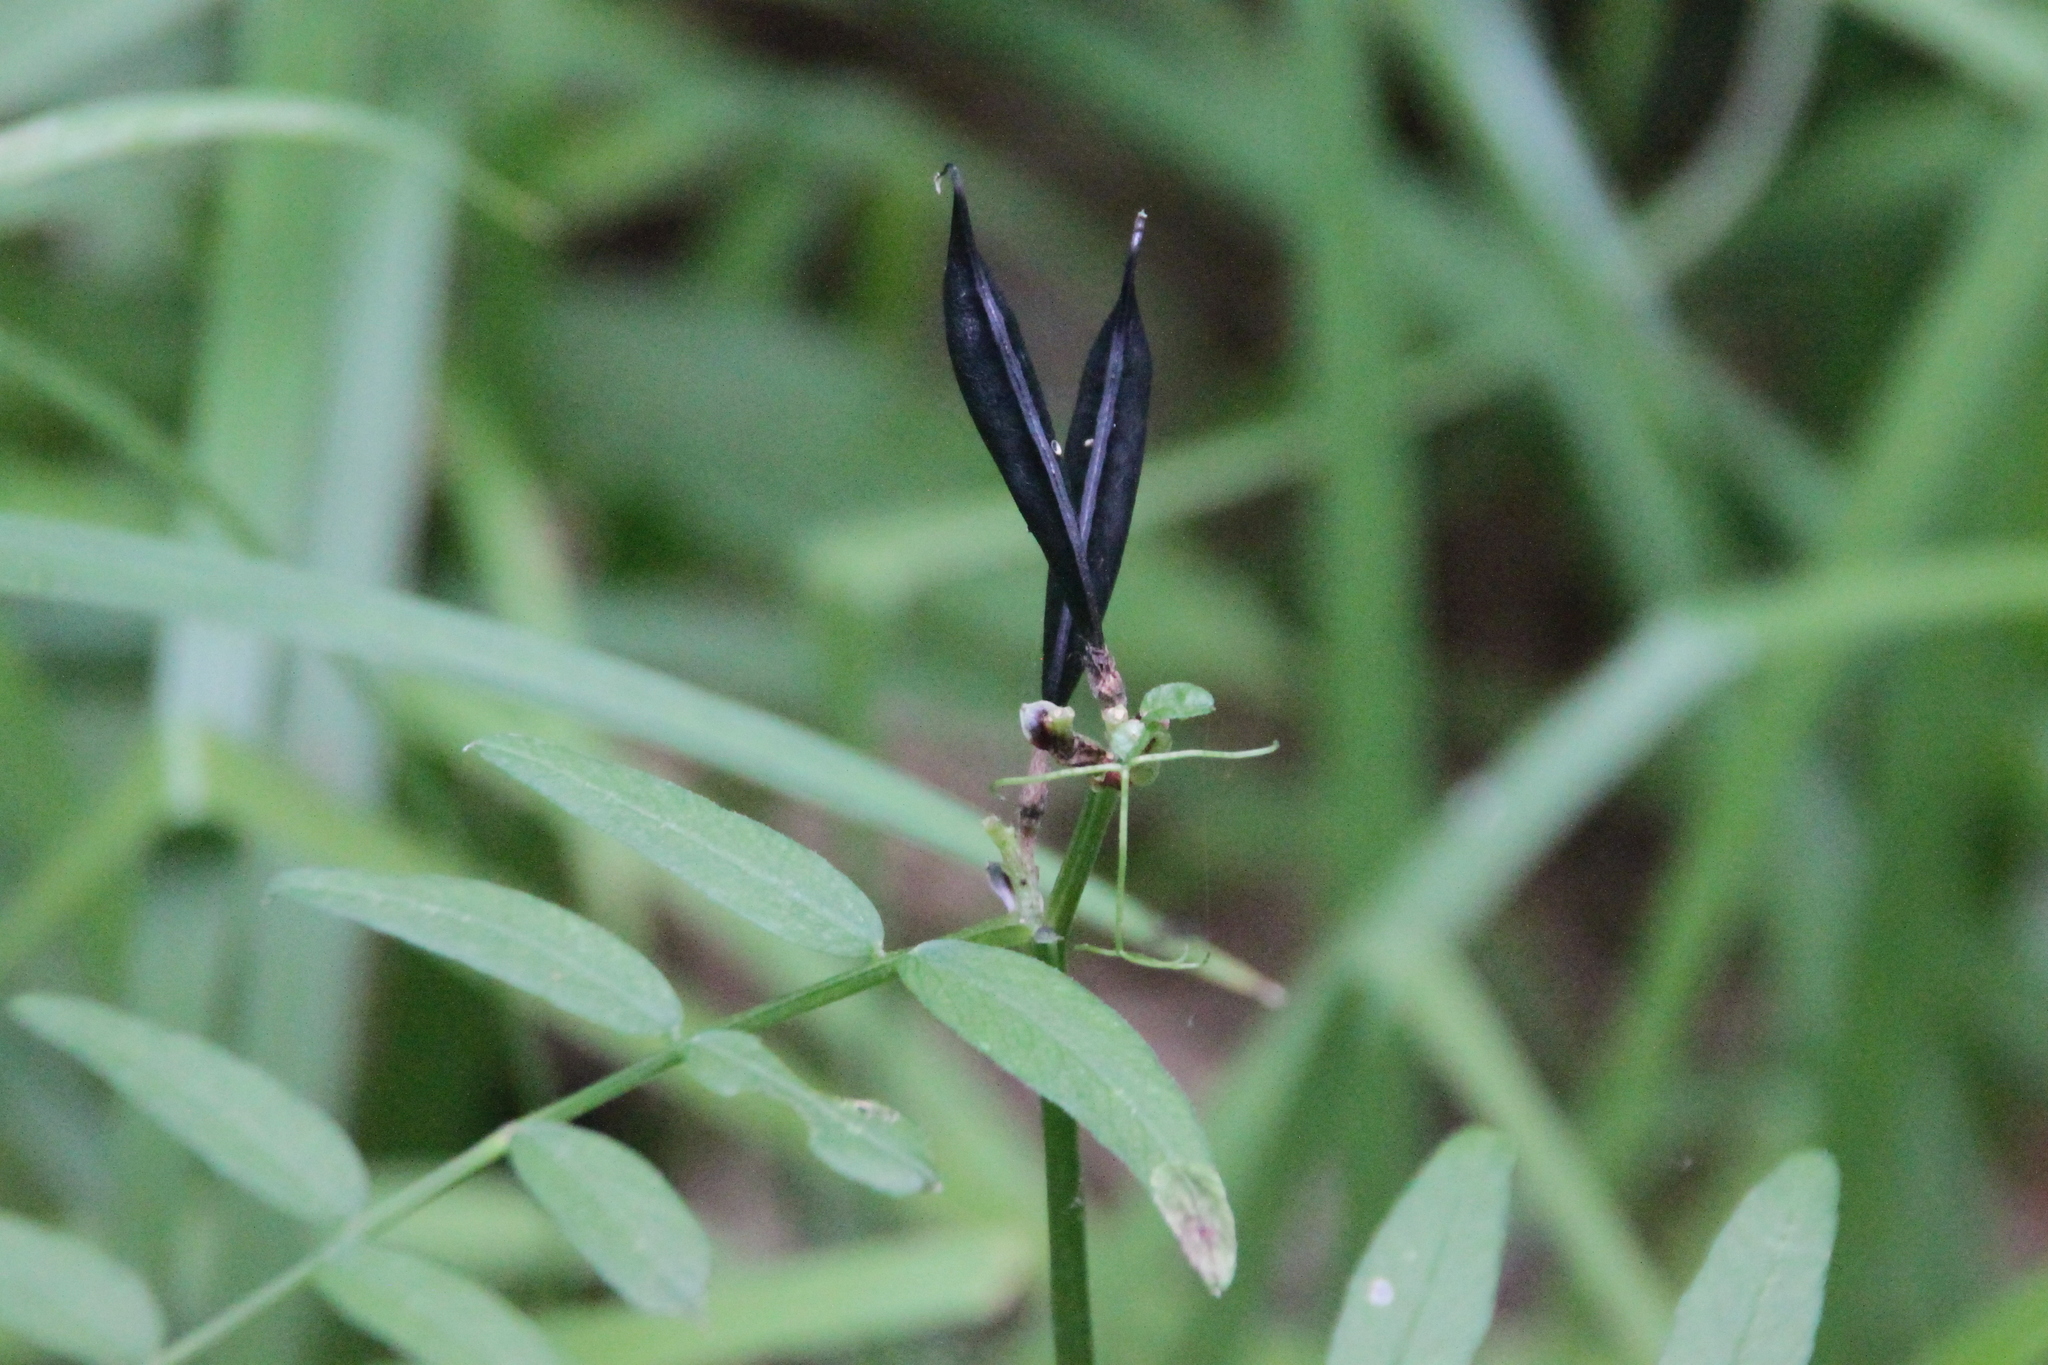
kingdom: Plantae
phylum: Tracheophyta
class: Magnoliopsida
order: Fabales
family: Fabaceae
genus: Vicia
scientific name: Vicia sepium
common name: Bush vetch
